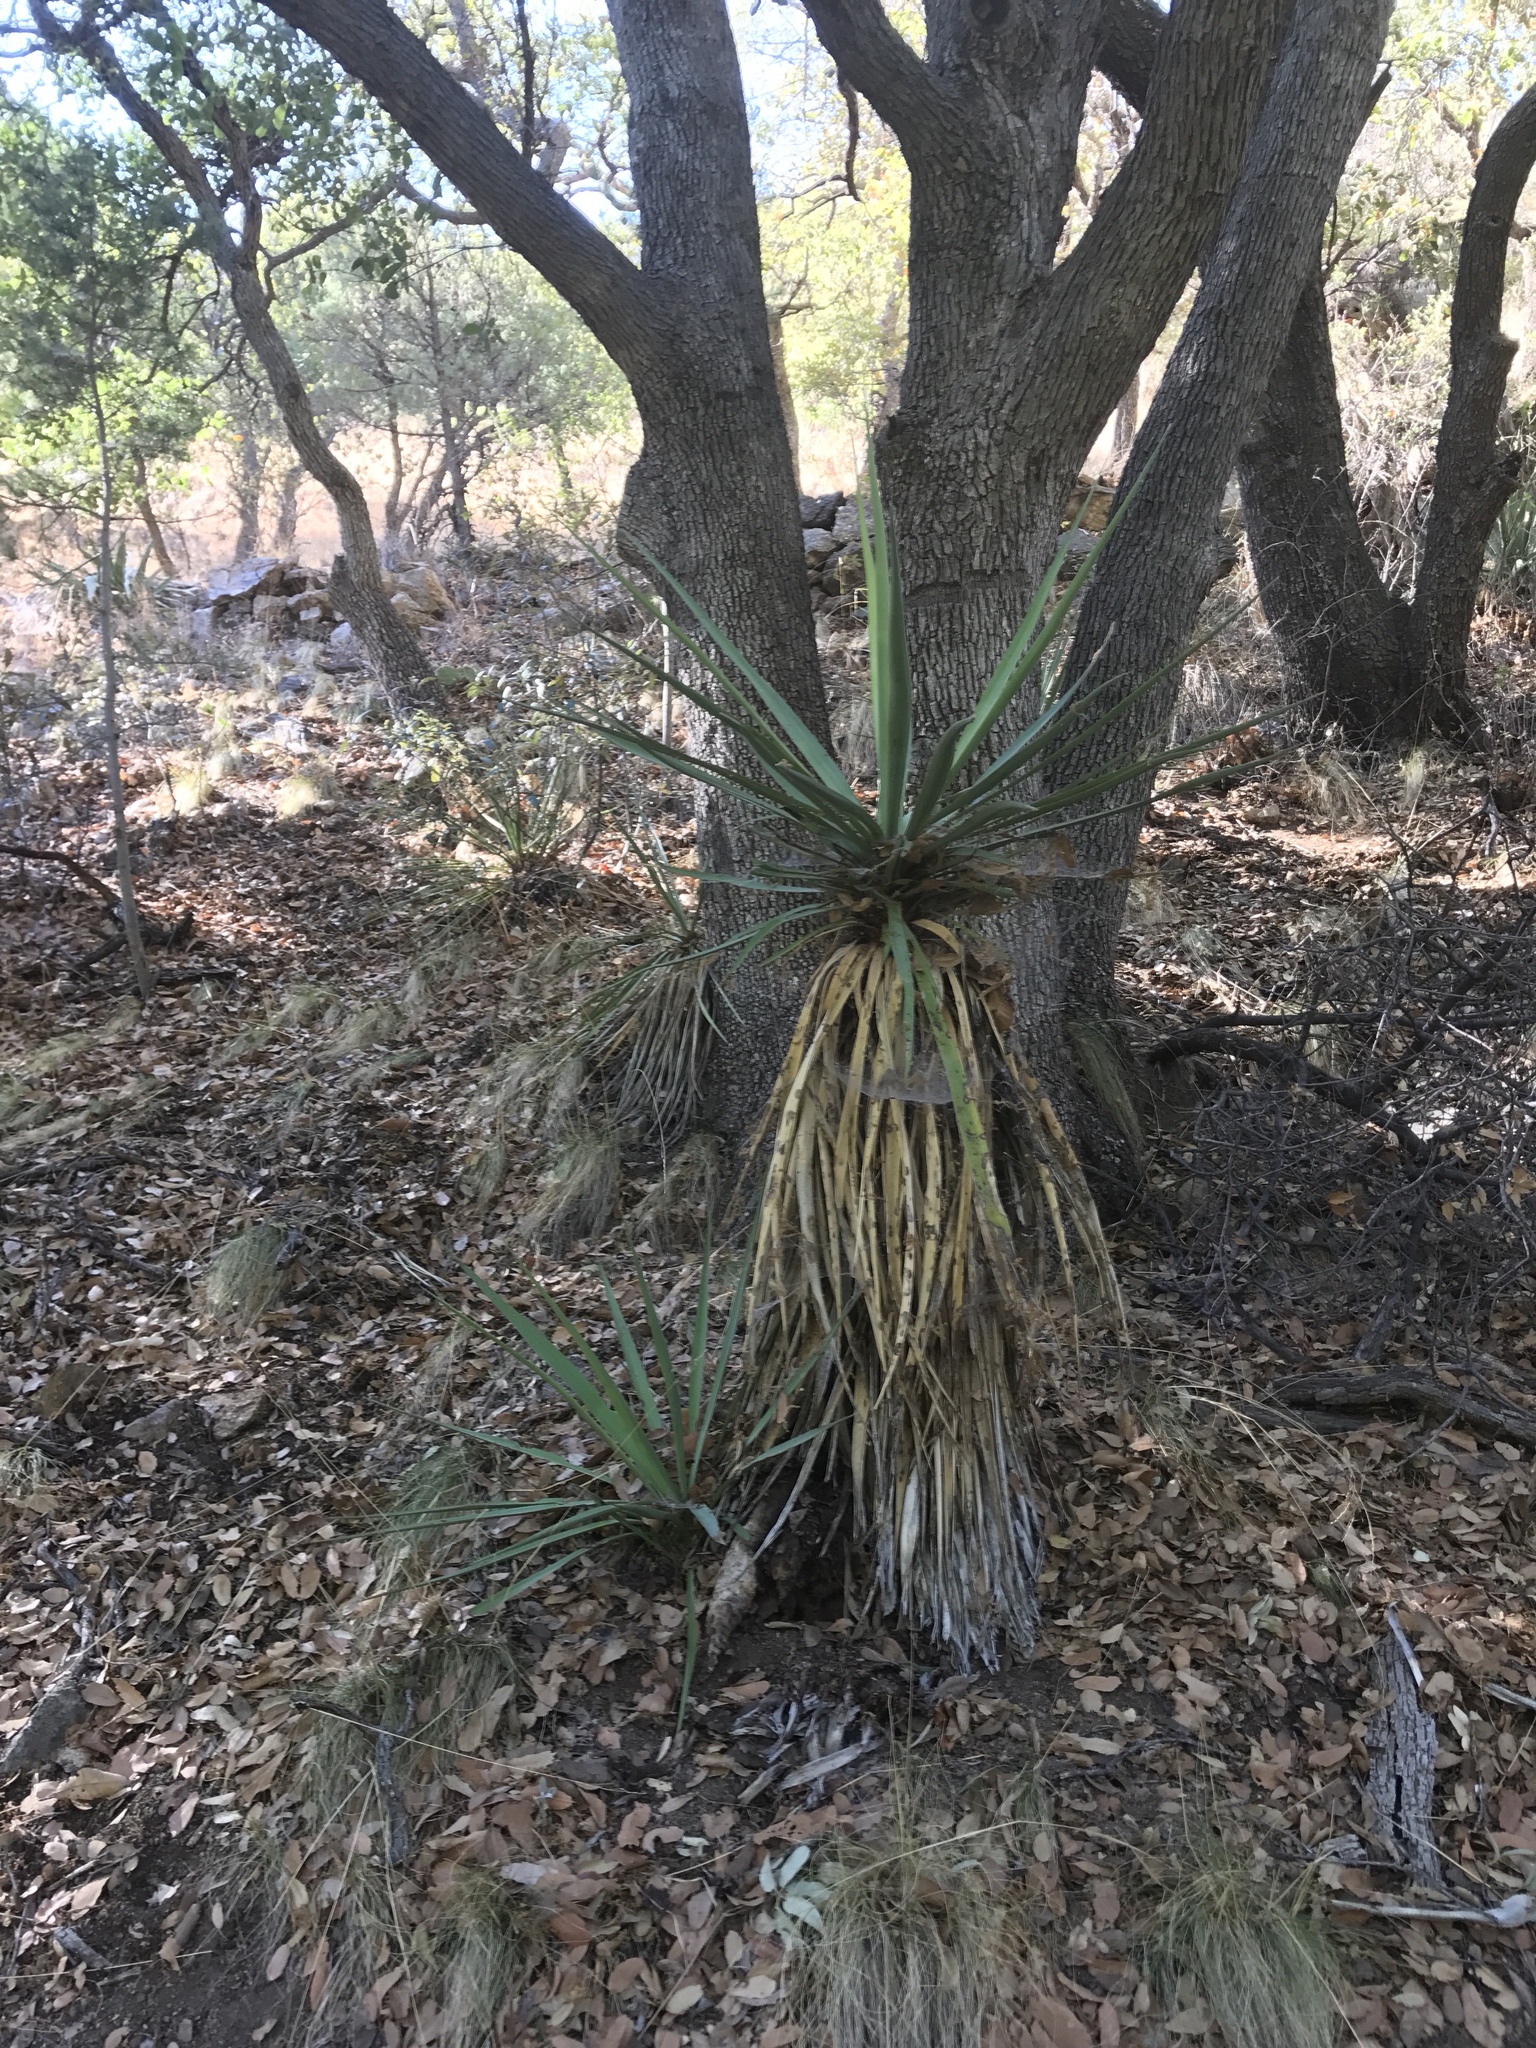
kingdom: Plantae
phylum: Tracheophyta
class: Liliopsida
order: Asparagales
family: Asparagaceae
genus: Yucca
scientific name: Yucca schottii
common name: Hoary yucca
